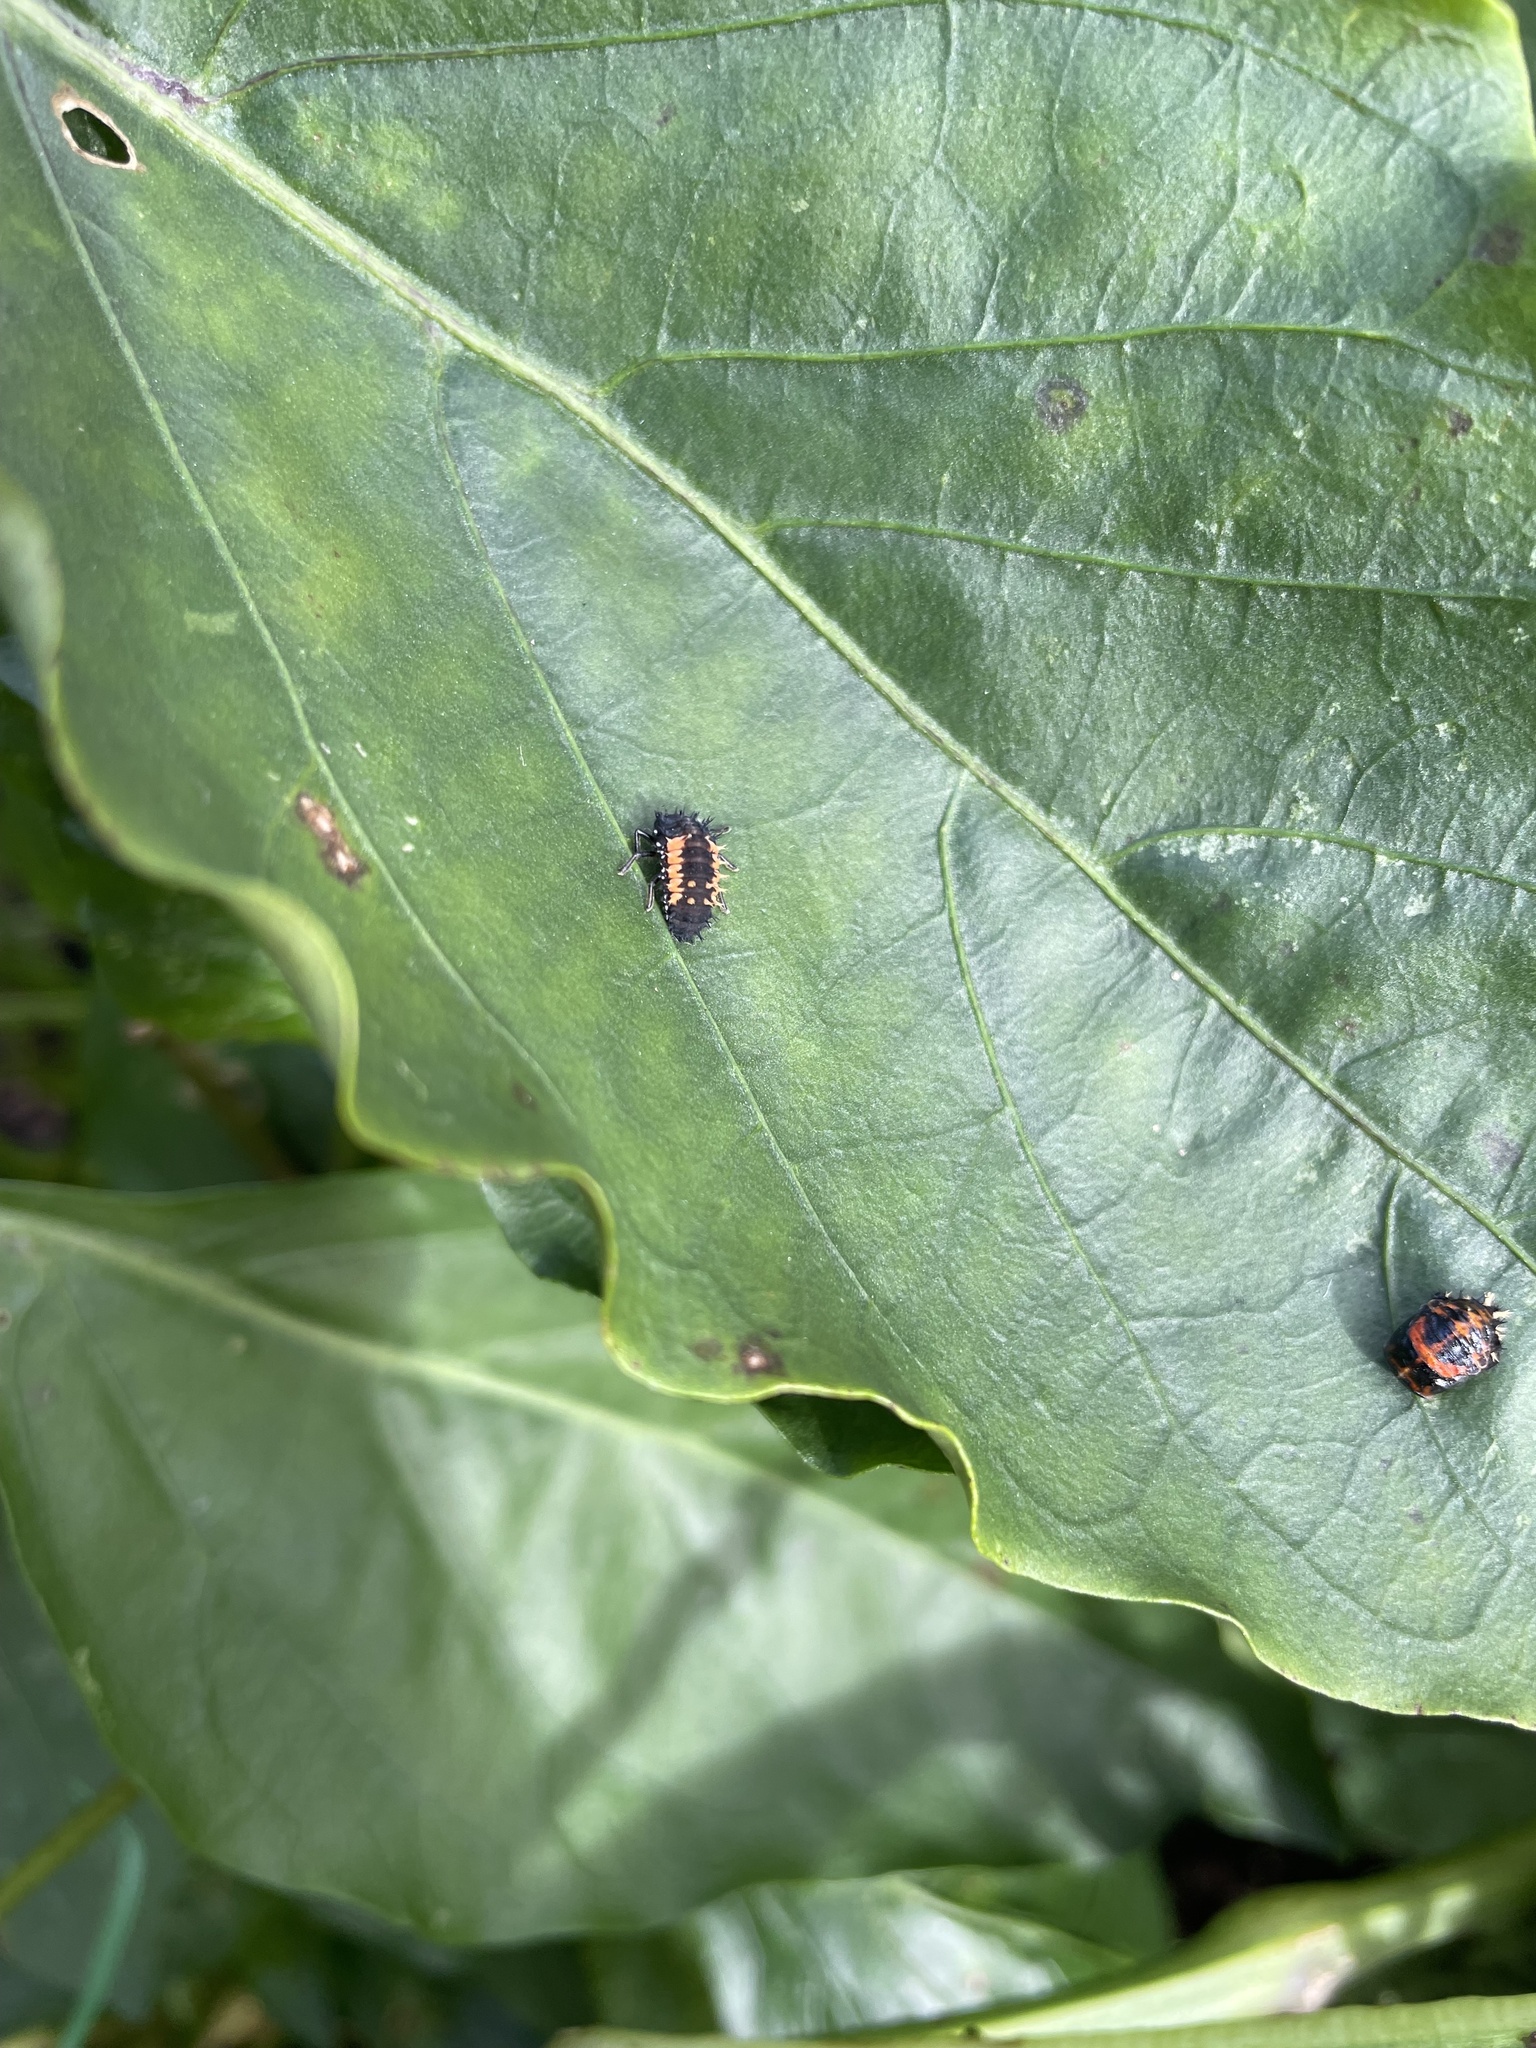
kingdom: Animalia
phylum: Arthropoda
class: Insecta
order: Coleoptera
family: Coccinellidae
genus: Harmonia
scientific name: Harmonia axyridis
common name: Harlequin ladybird
